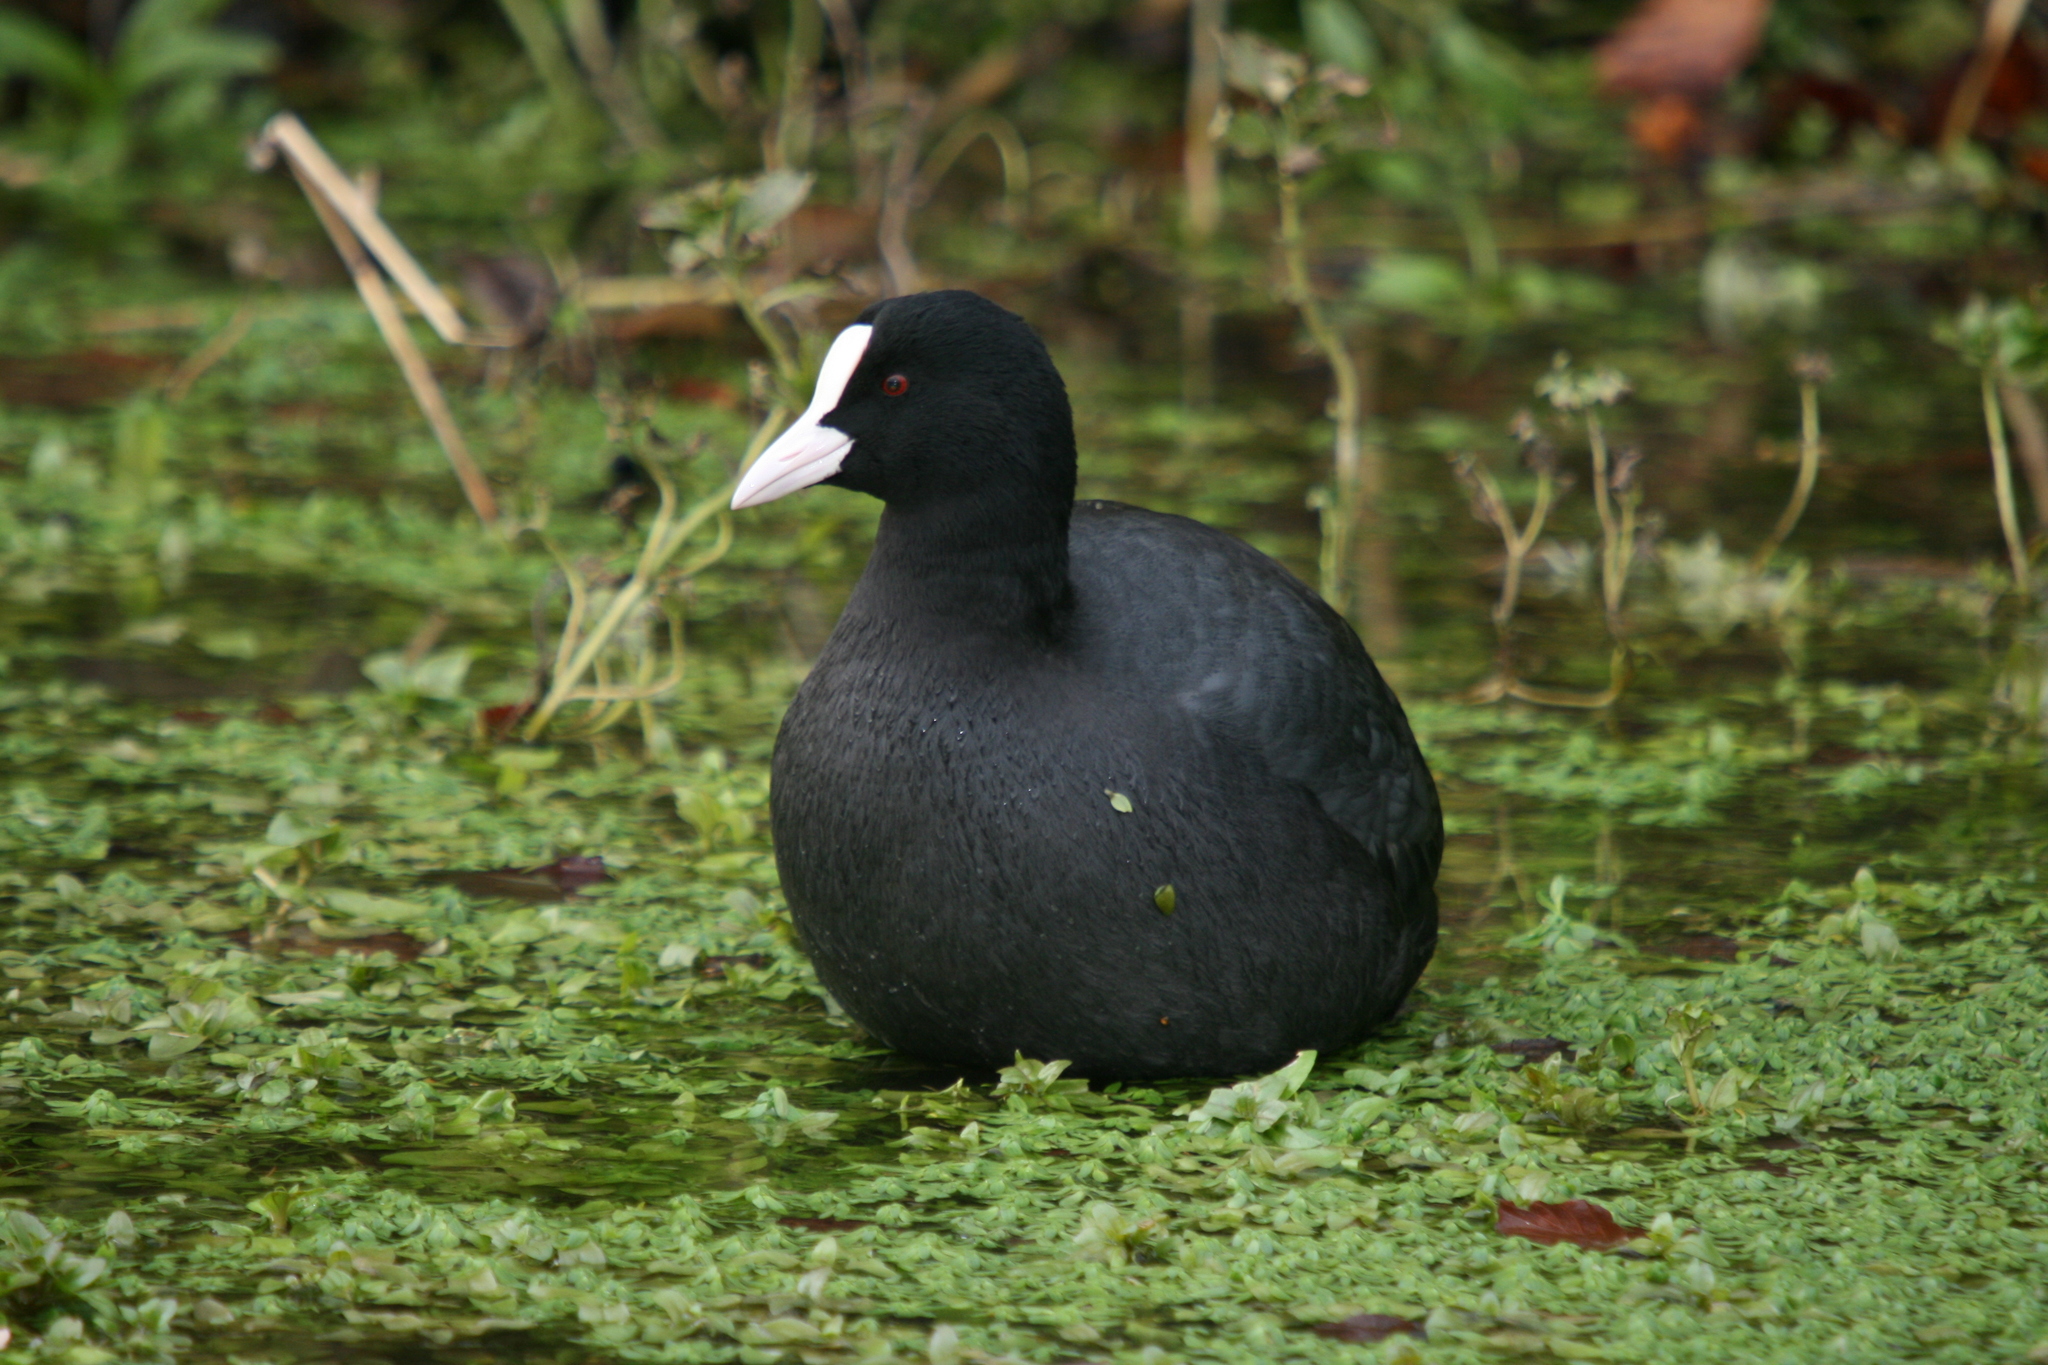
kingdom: Animalia
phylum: Chordata
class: Aves
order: Gruiformes
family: Rallidae
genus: Fulica
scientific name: Fulica atra
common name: Eurasian coot
